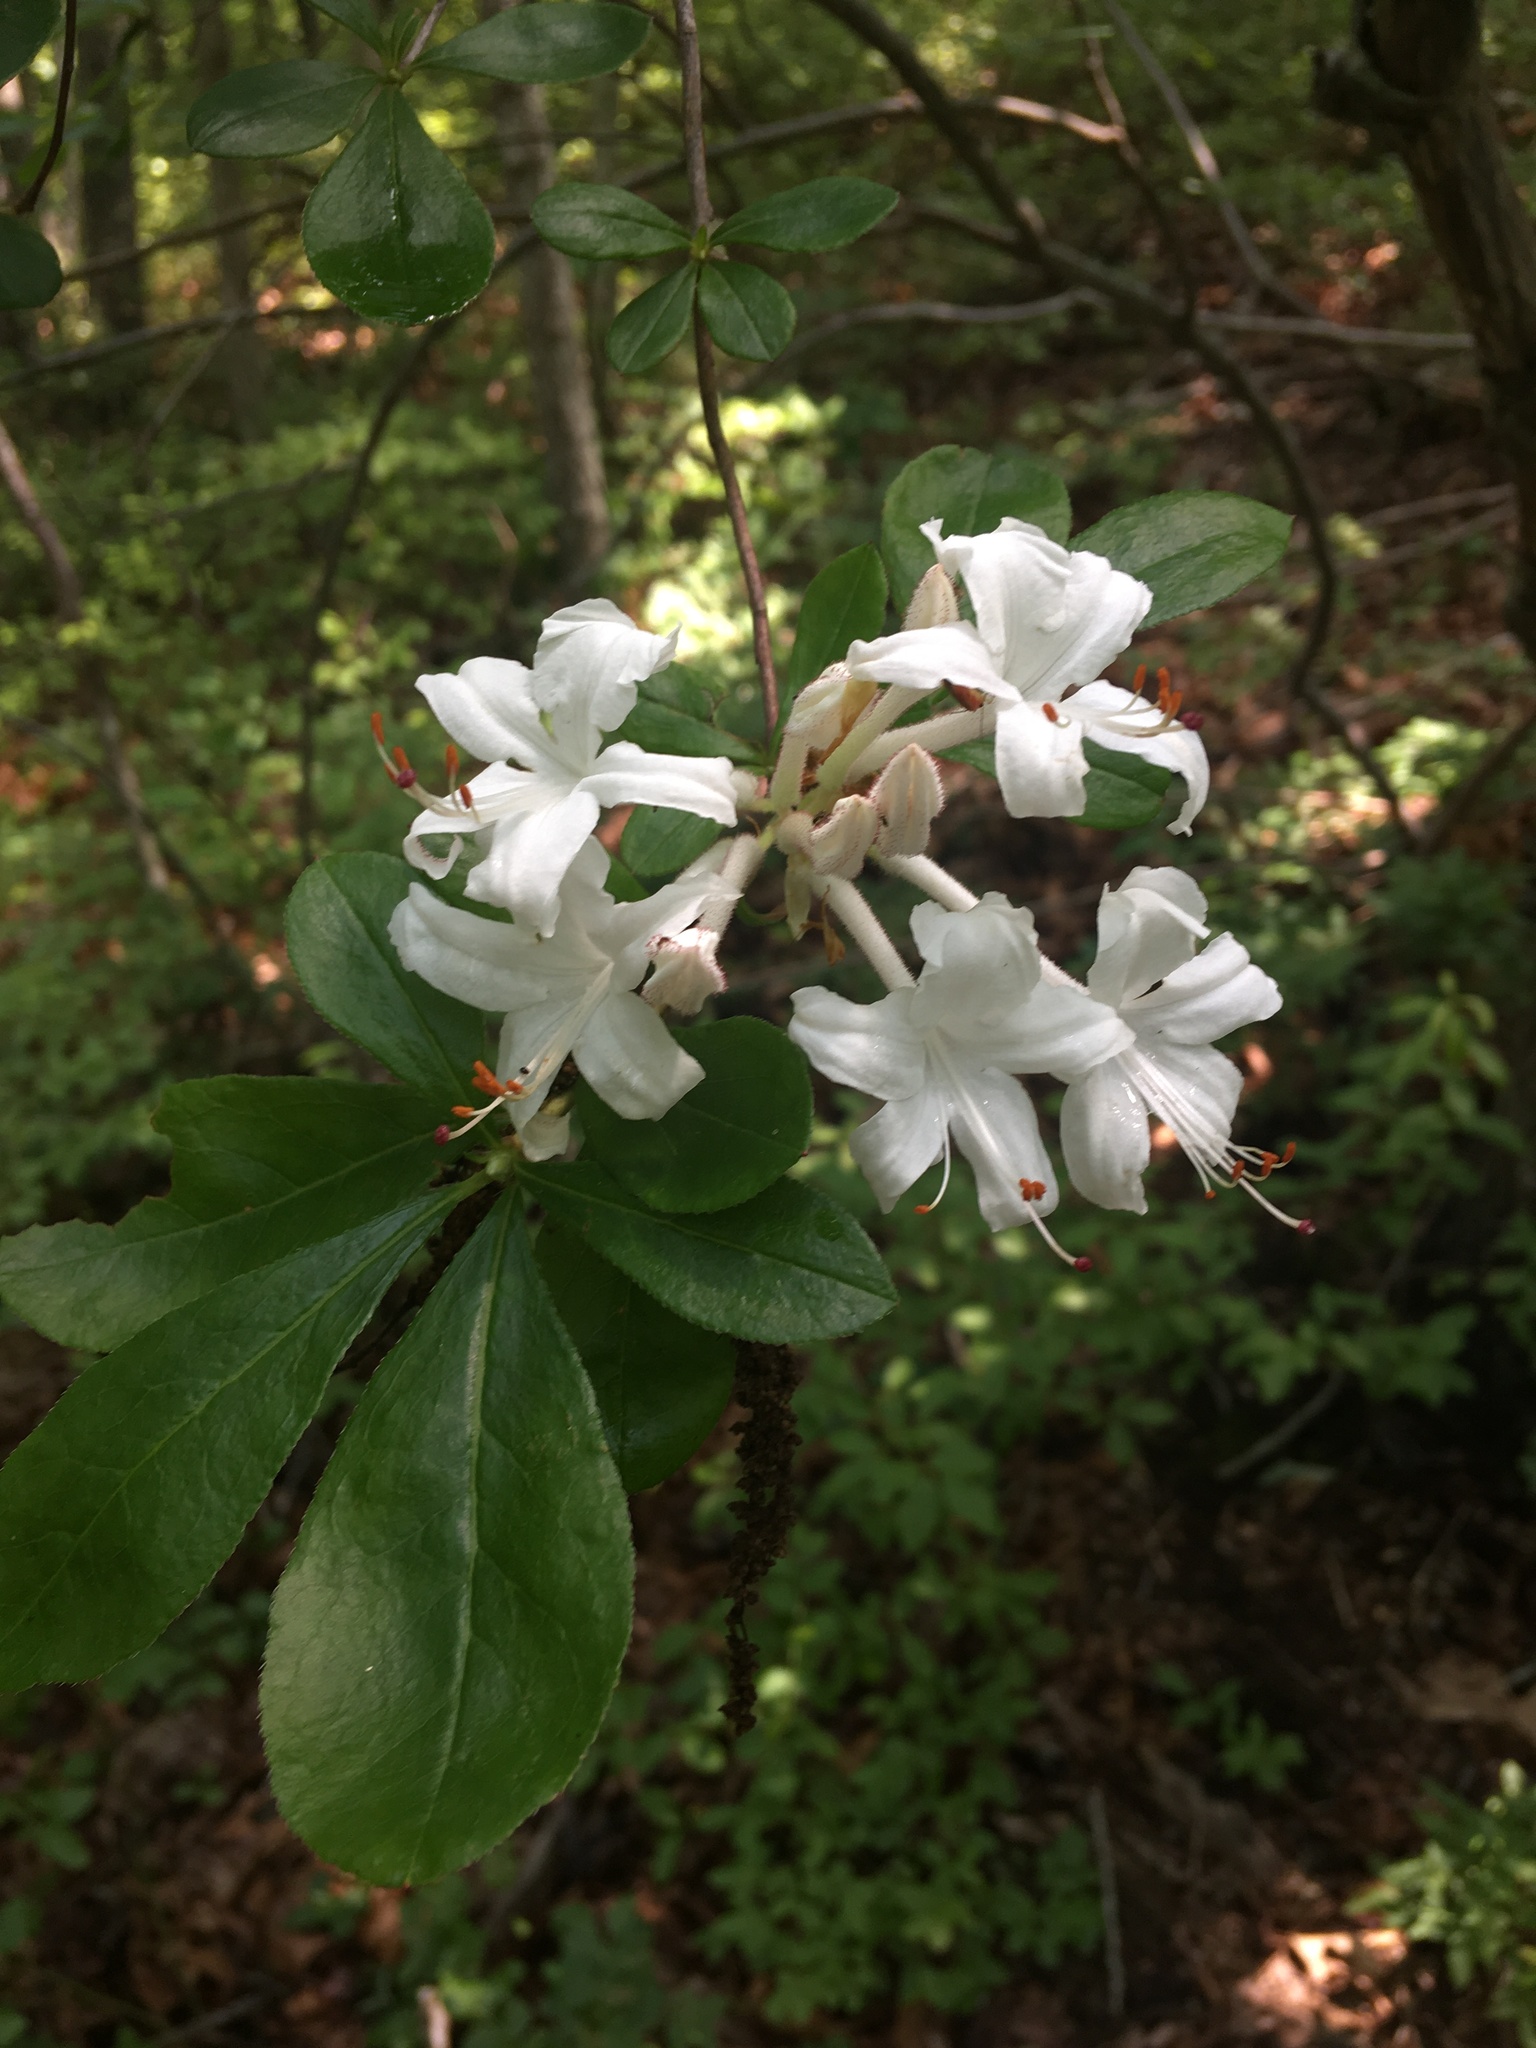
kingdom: Plantae
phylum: Tracheophyta
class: Magnoliopsida
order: Ericales
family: Ericaceae
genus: Rhododendron
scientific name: Rhododendron viscosum
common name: Clammy azalea
